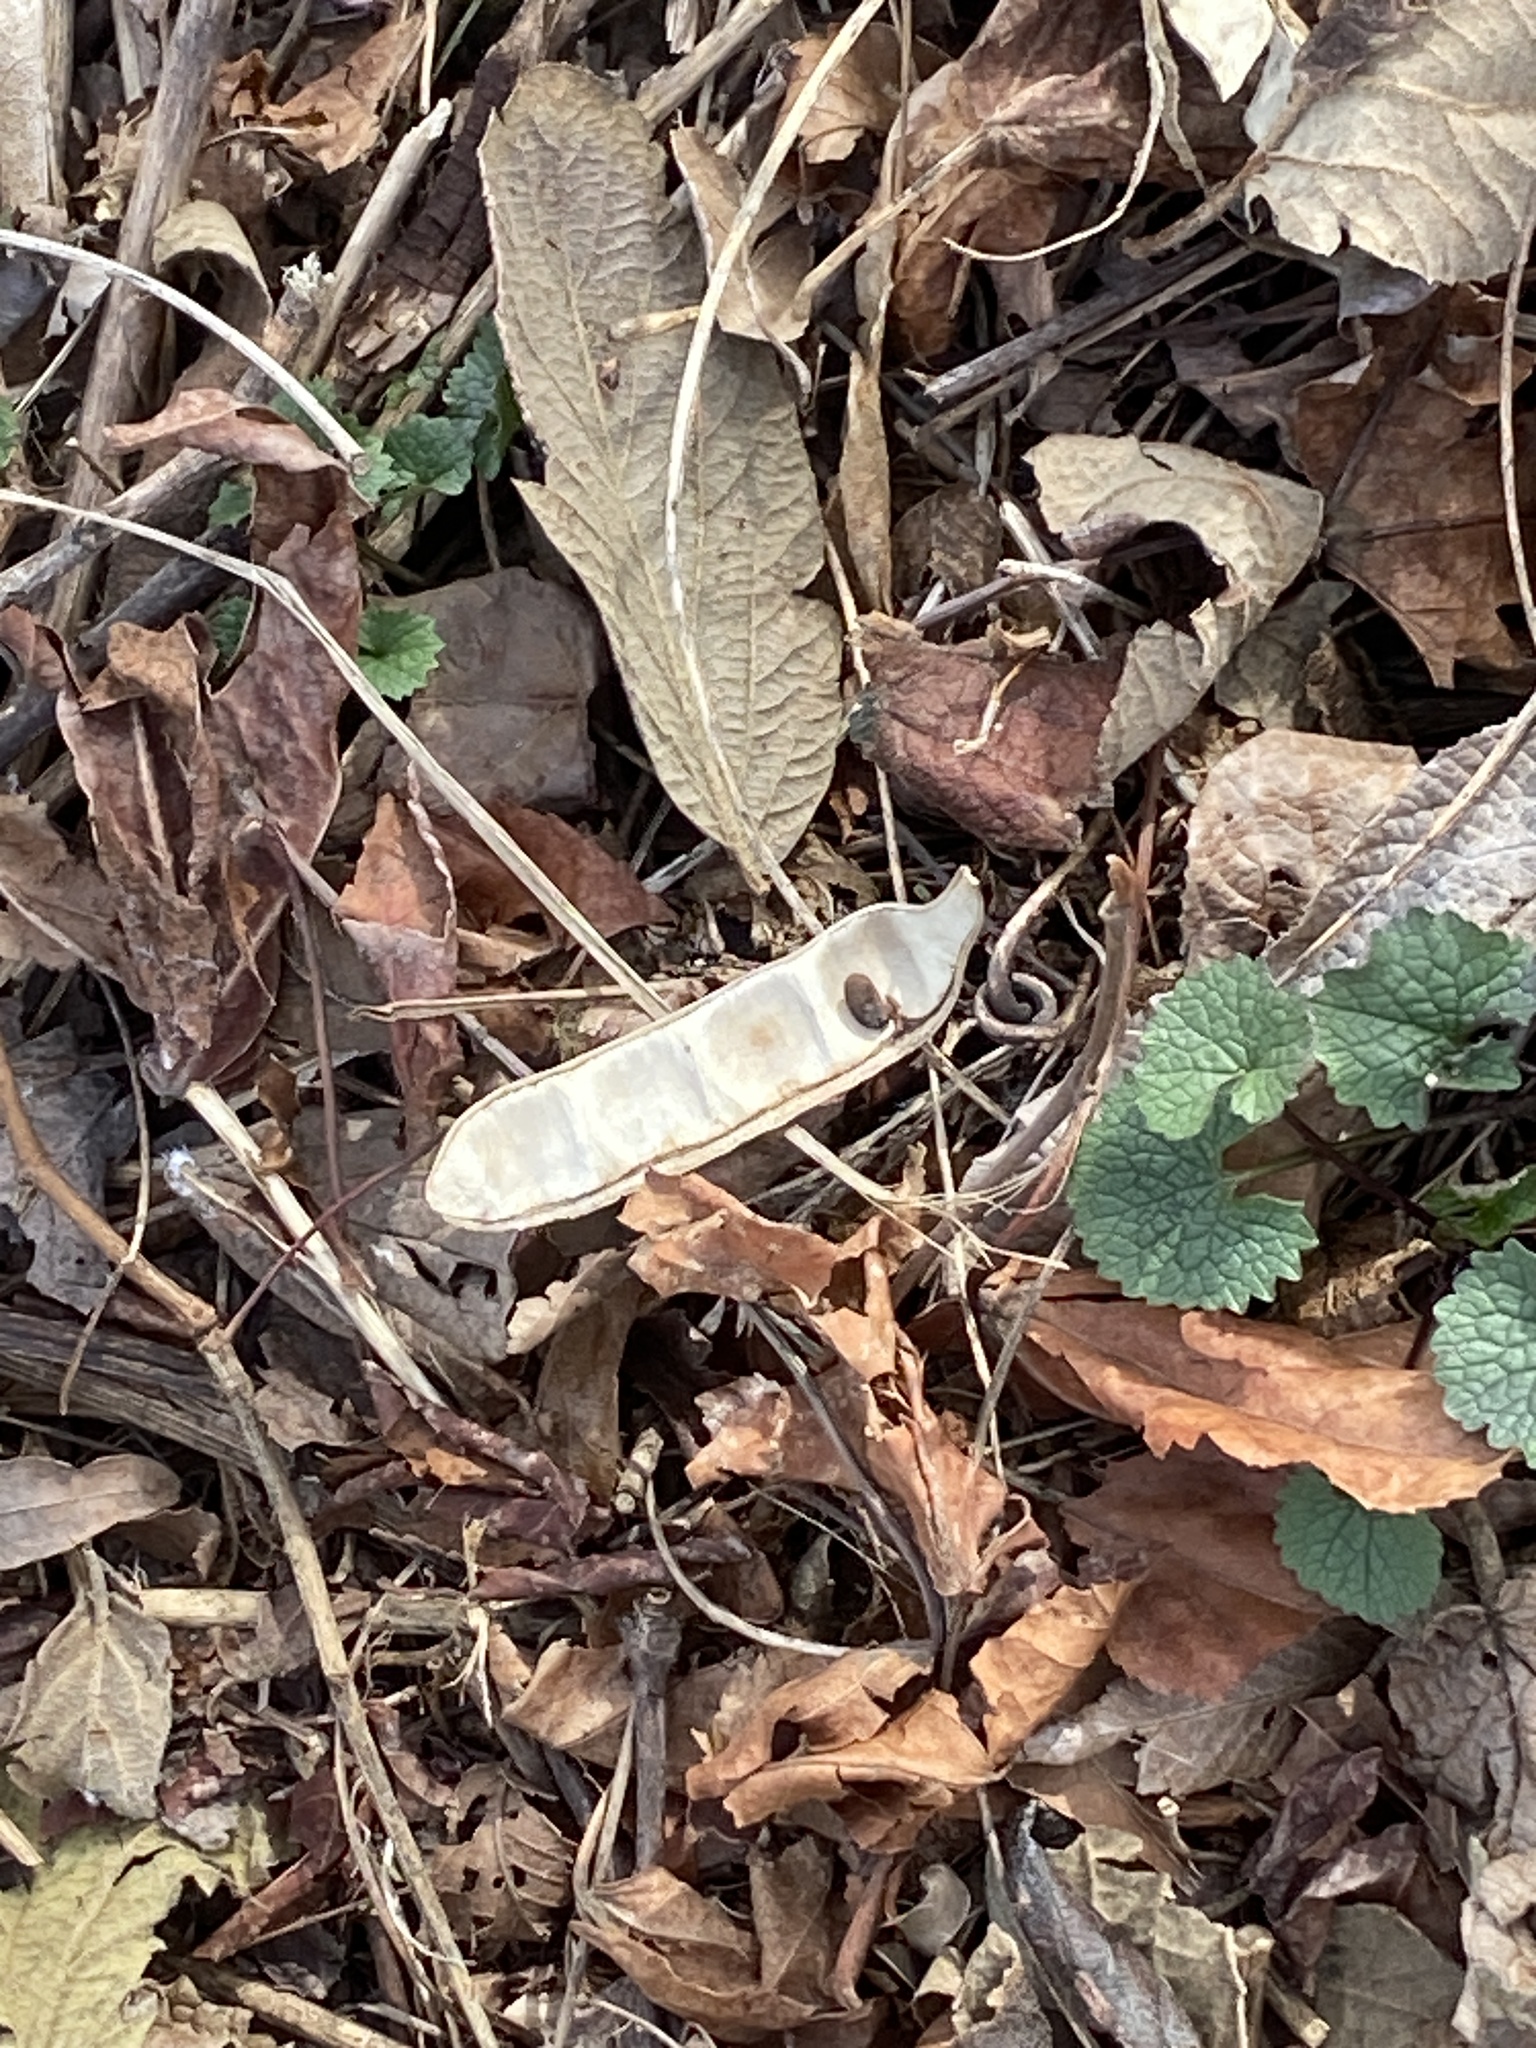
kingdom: Plantae
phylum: Tracheophyta
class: Magnoliopsida
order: Fabales
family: Fabaceae
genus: Robinia
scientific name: Robinia pseudoacacia
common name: Black locust
